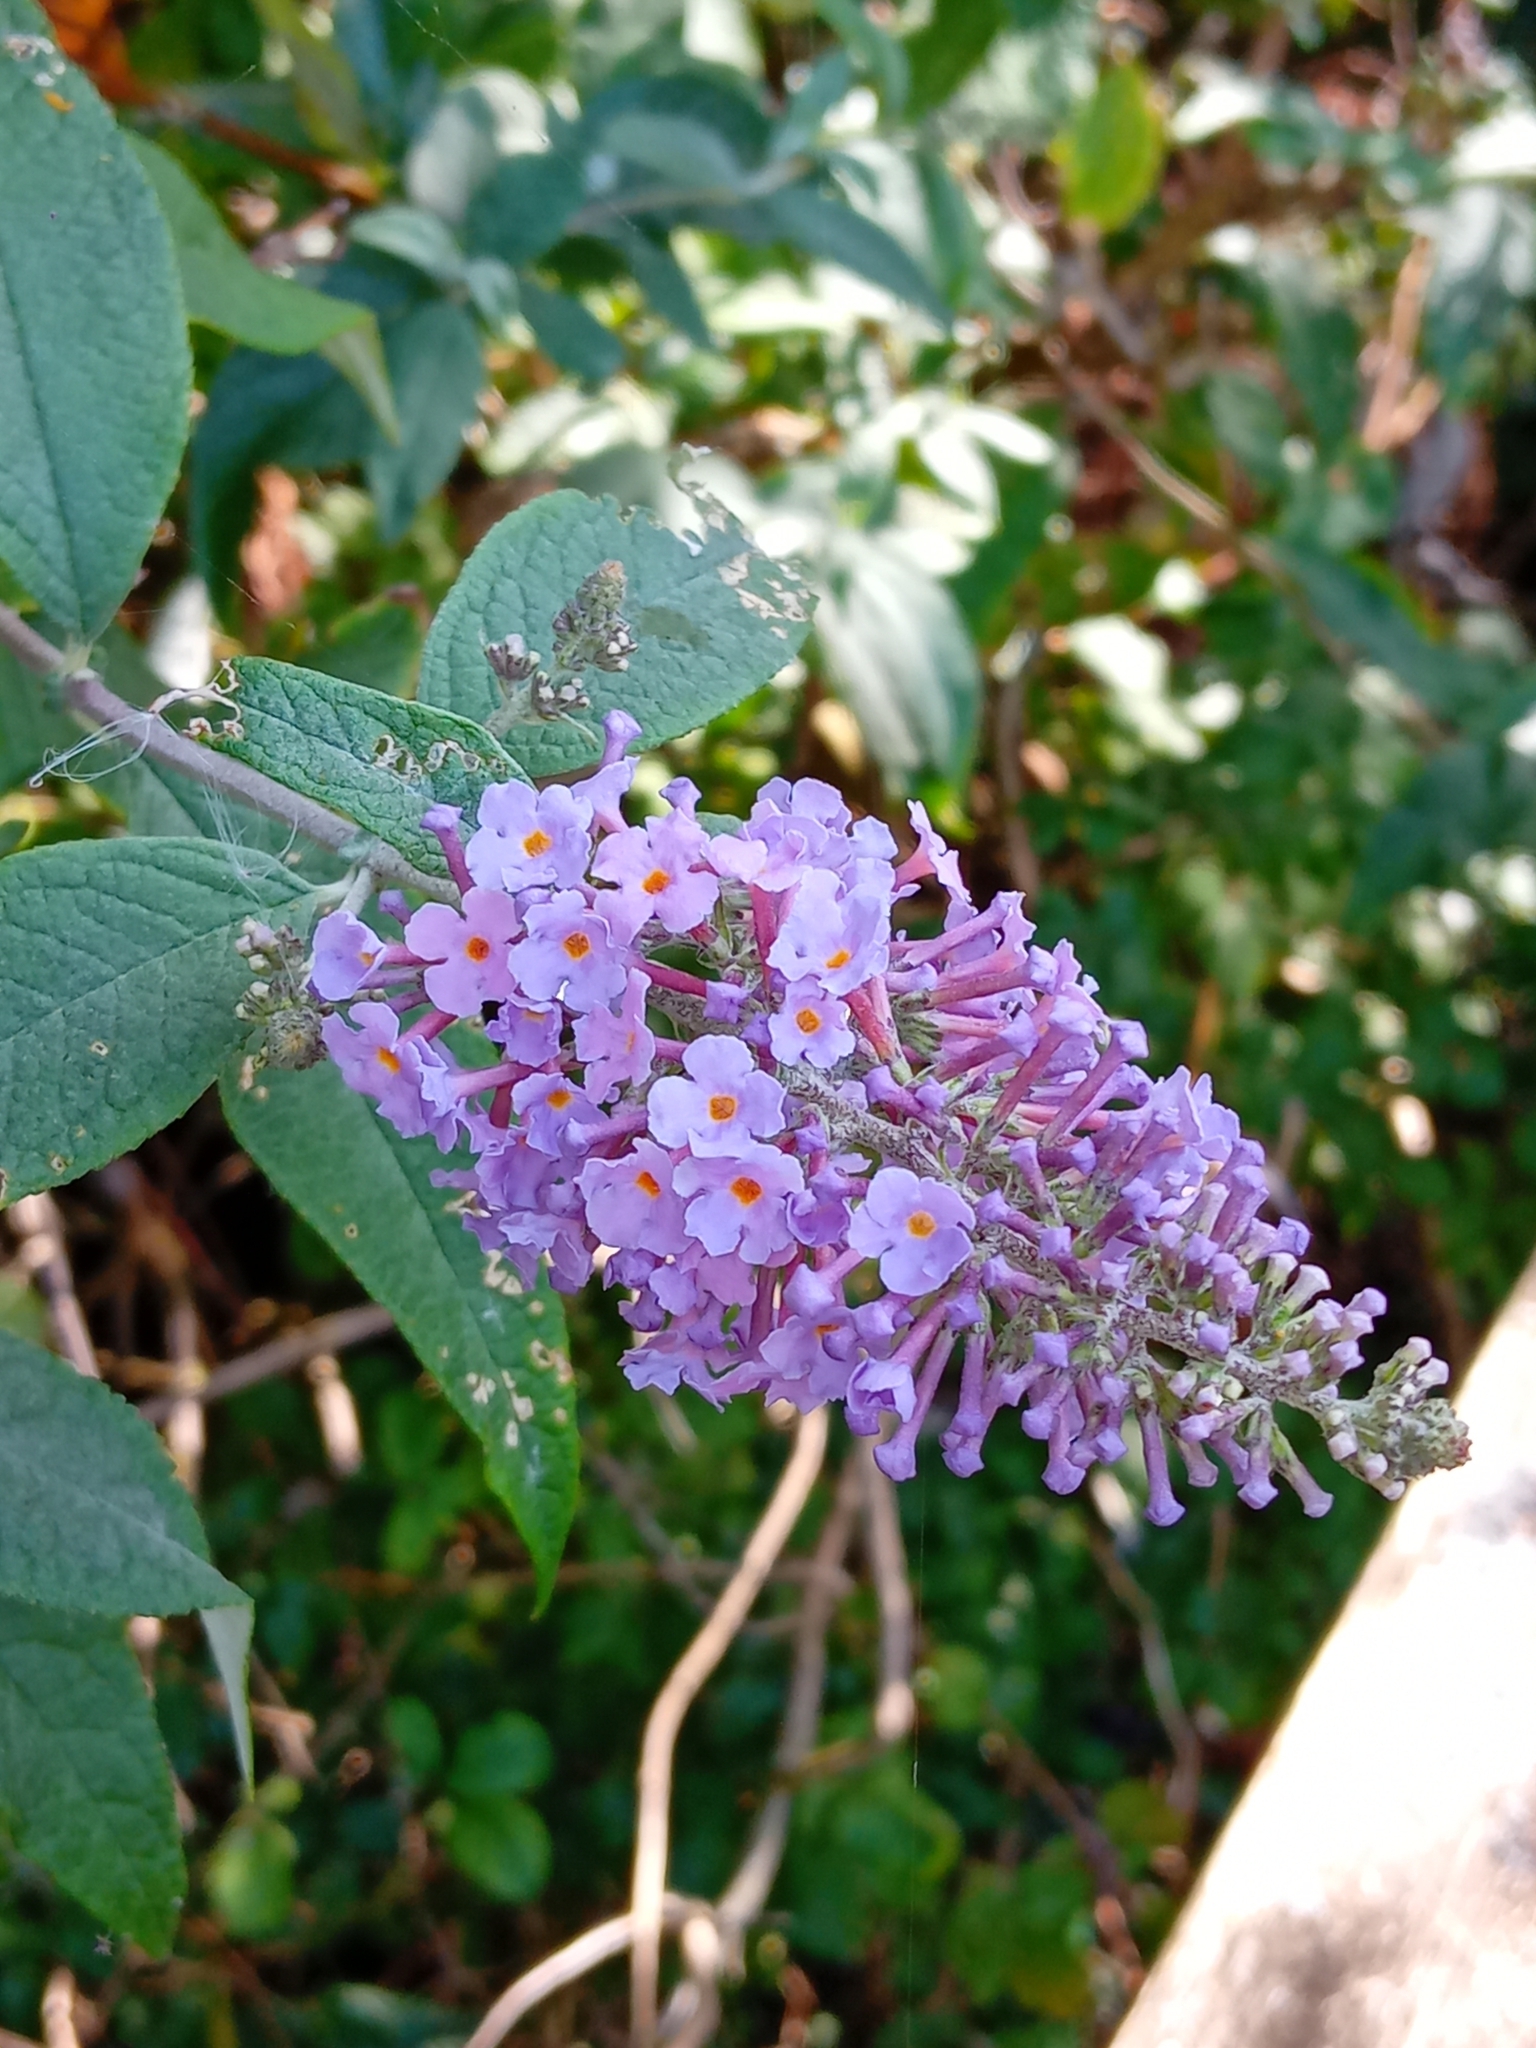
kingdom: Plantae
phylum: Tracheophyta
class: Magnoliopsida
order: Lamiales
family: Scrophulariaceae
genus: Buddleja
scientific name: Buddleja davidii
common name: Butterfly-bush
